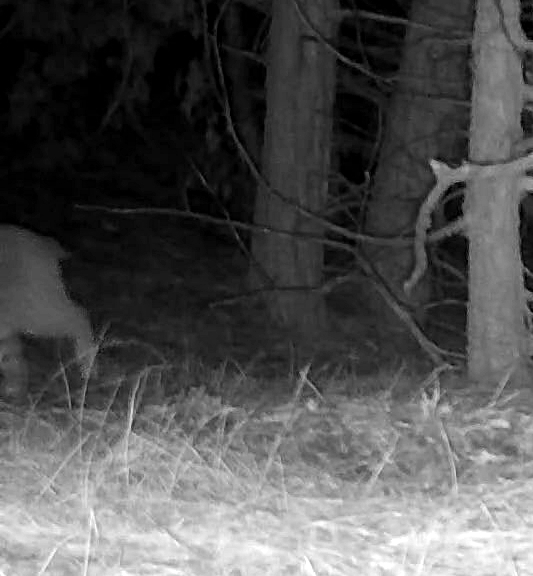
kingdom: Animalia
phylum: Chordata
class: Mammalia
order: Carnivora
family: Felidae
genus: Lynx
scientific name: Lynx rufus
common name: Bobcat
